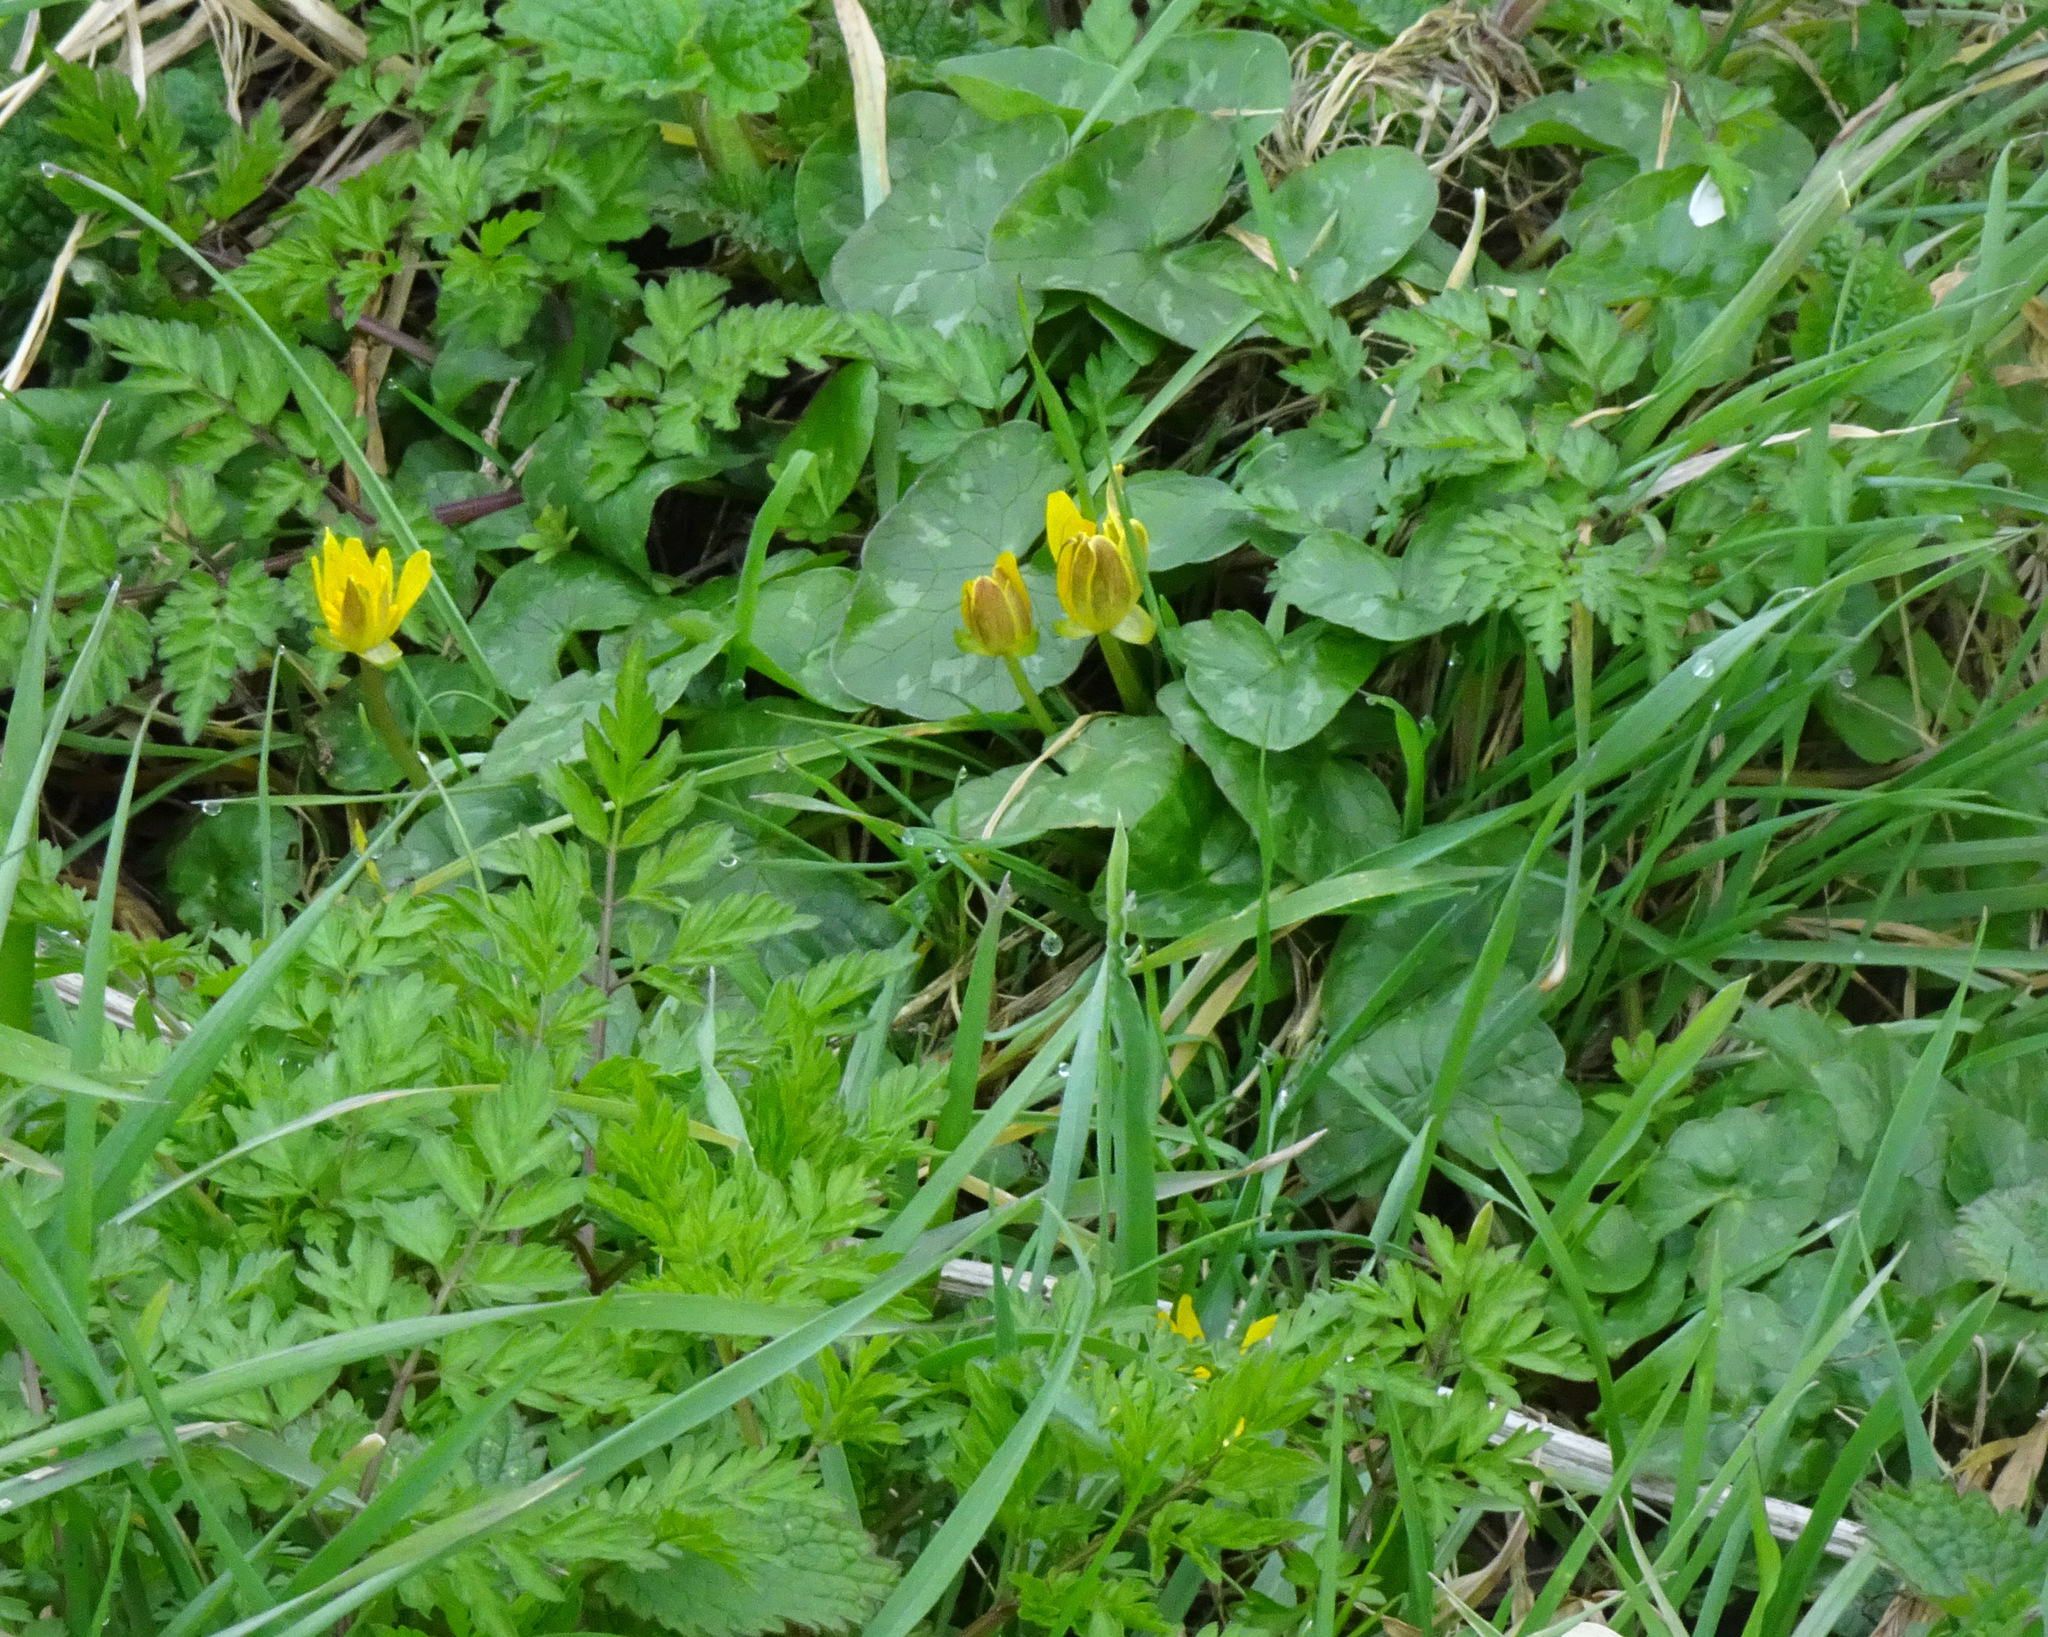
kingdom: Plantae
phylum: Tracheophyta
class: Magnoliopsida
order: Ranunculales
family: Ranunculaceae
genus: Ficaria
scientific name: Ficaria verna
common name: Lesser celandine
